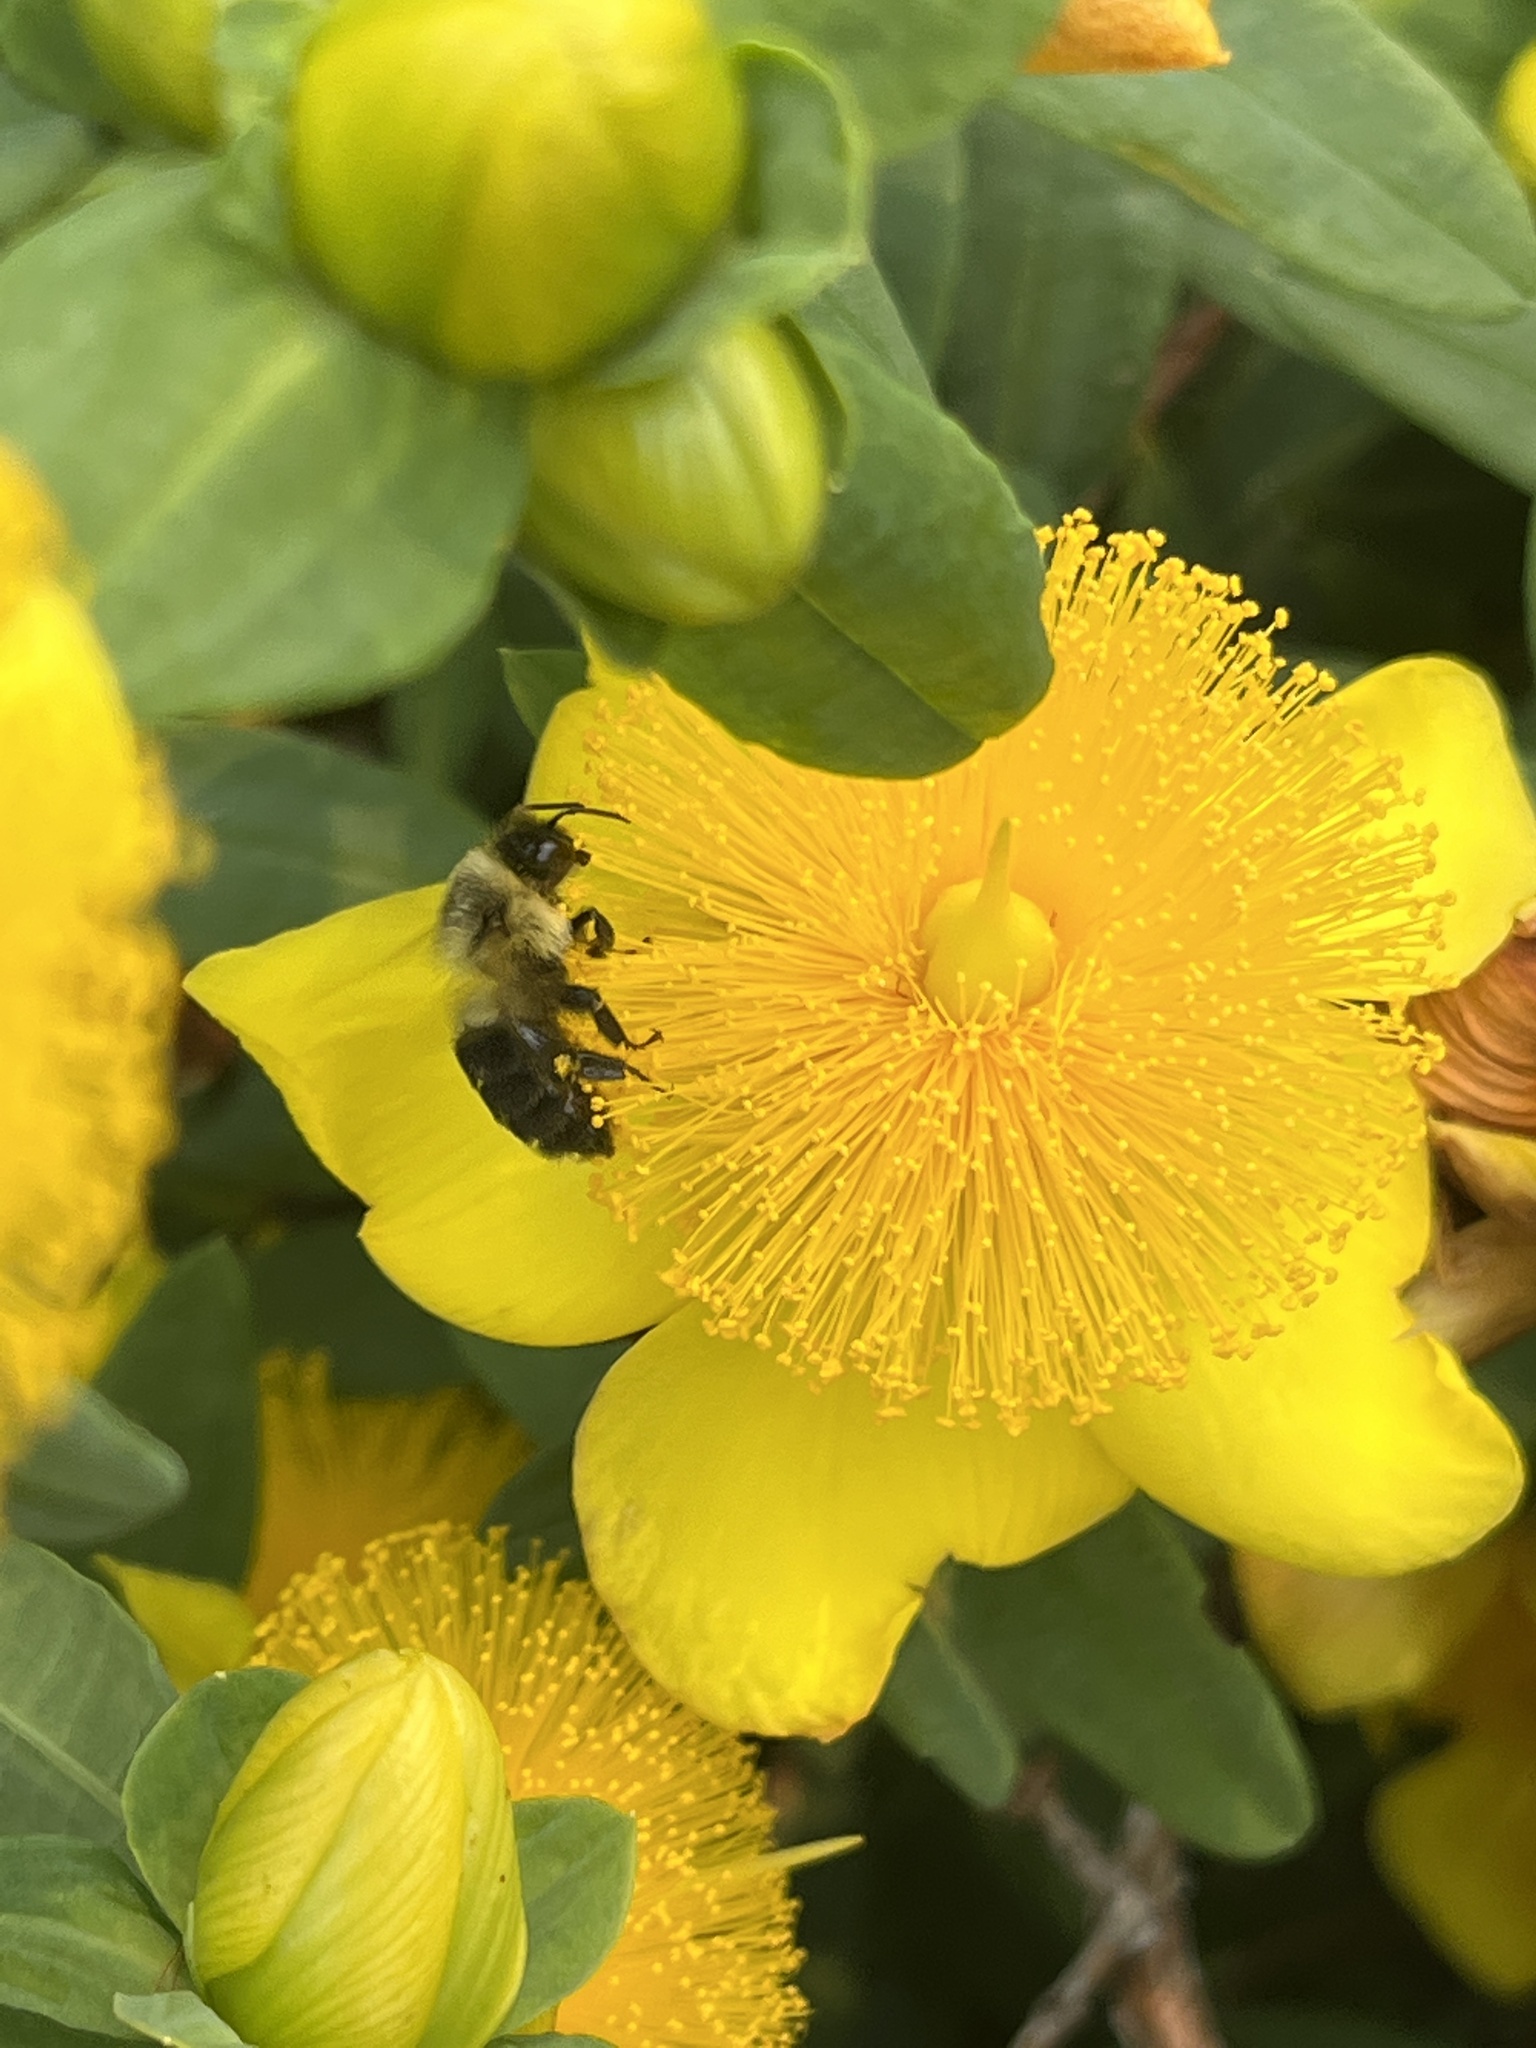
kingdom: Animalia
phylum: Arthropoda
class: Insecta
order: Hymenoptera
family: Apidae
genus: Bombus
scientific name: Bombus impatiens
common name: Common eastern bumble bee
